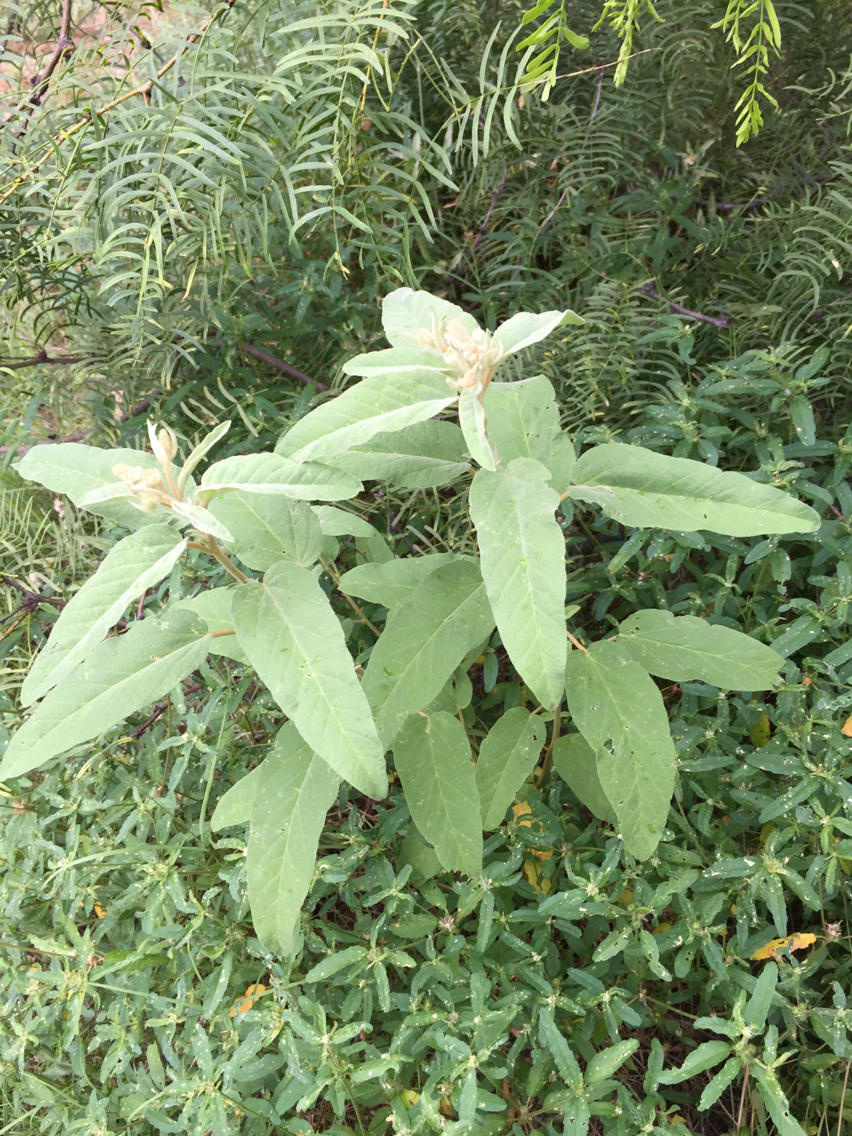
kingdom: Plantae
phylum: Tracheophyta
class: Magnoliopsida
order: Malpighiales
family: Euphorbiaceae
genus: Croton
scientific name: Croton lindheimeri
